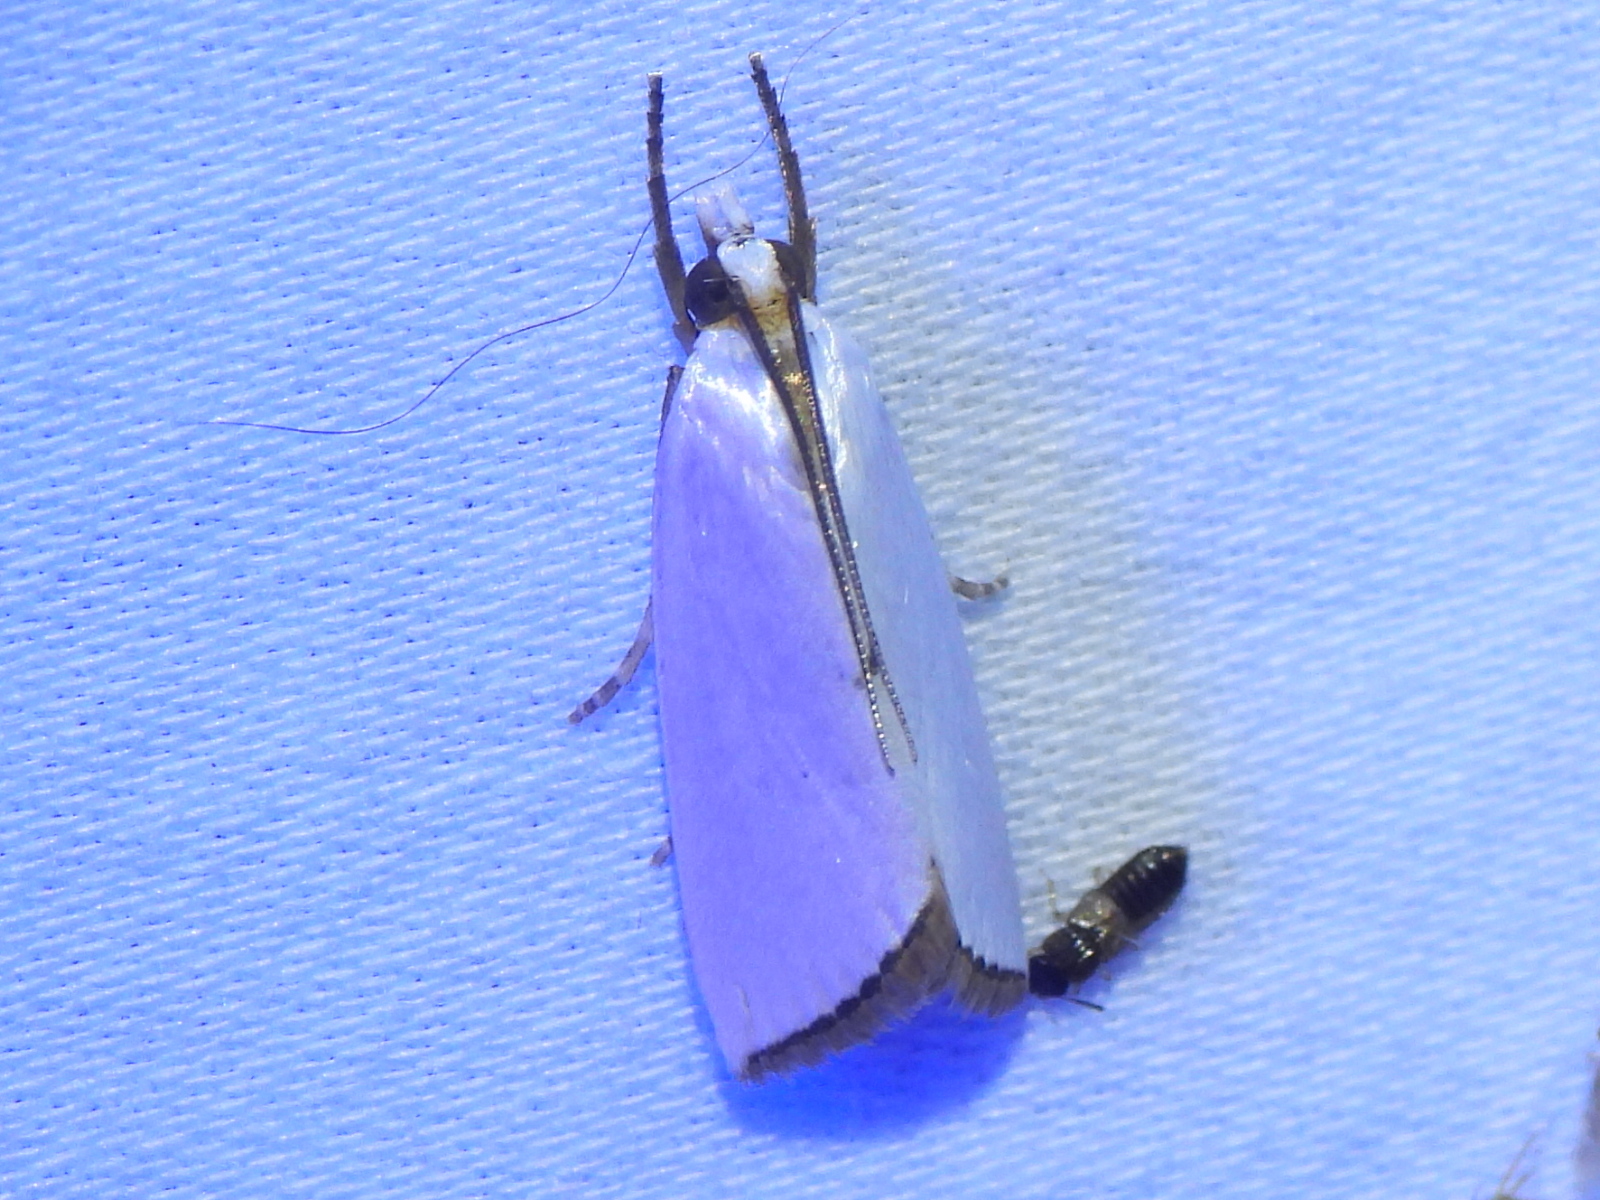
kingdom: Animalia
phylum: Arthropoda
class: Insecta
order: Lepidoptera
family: Crambidae
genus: Argyria
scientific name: Argyria nivalis
